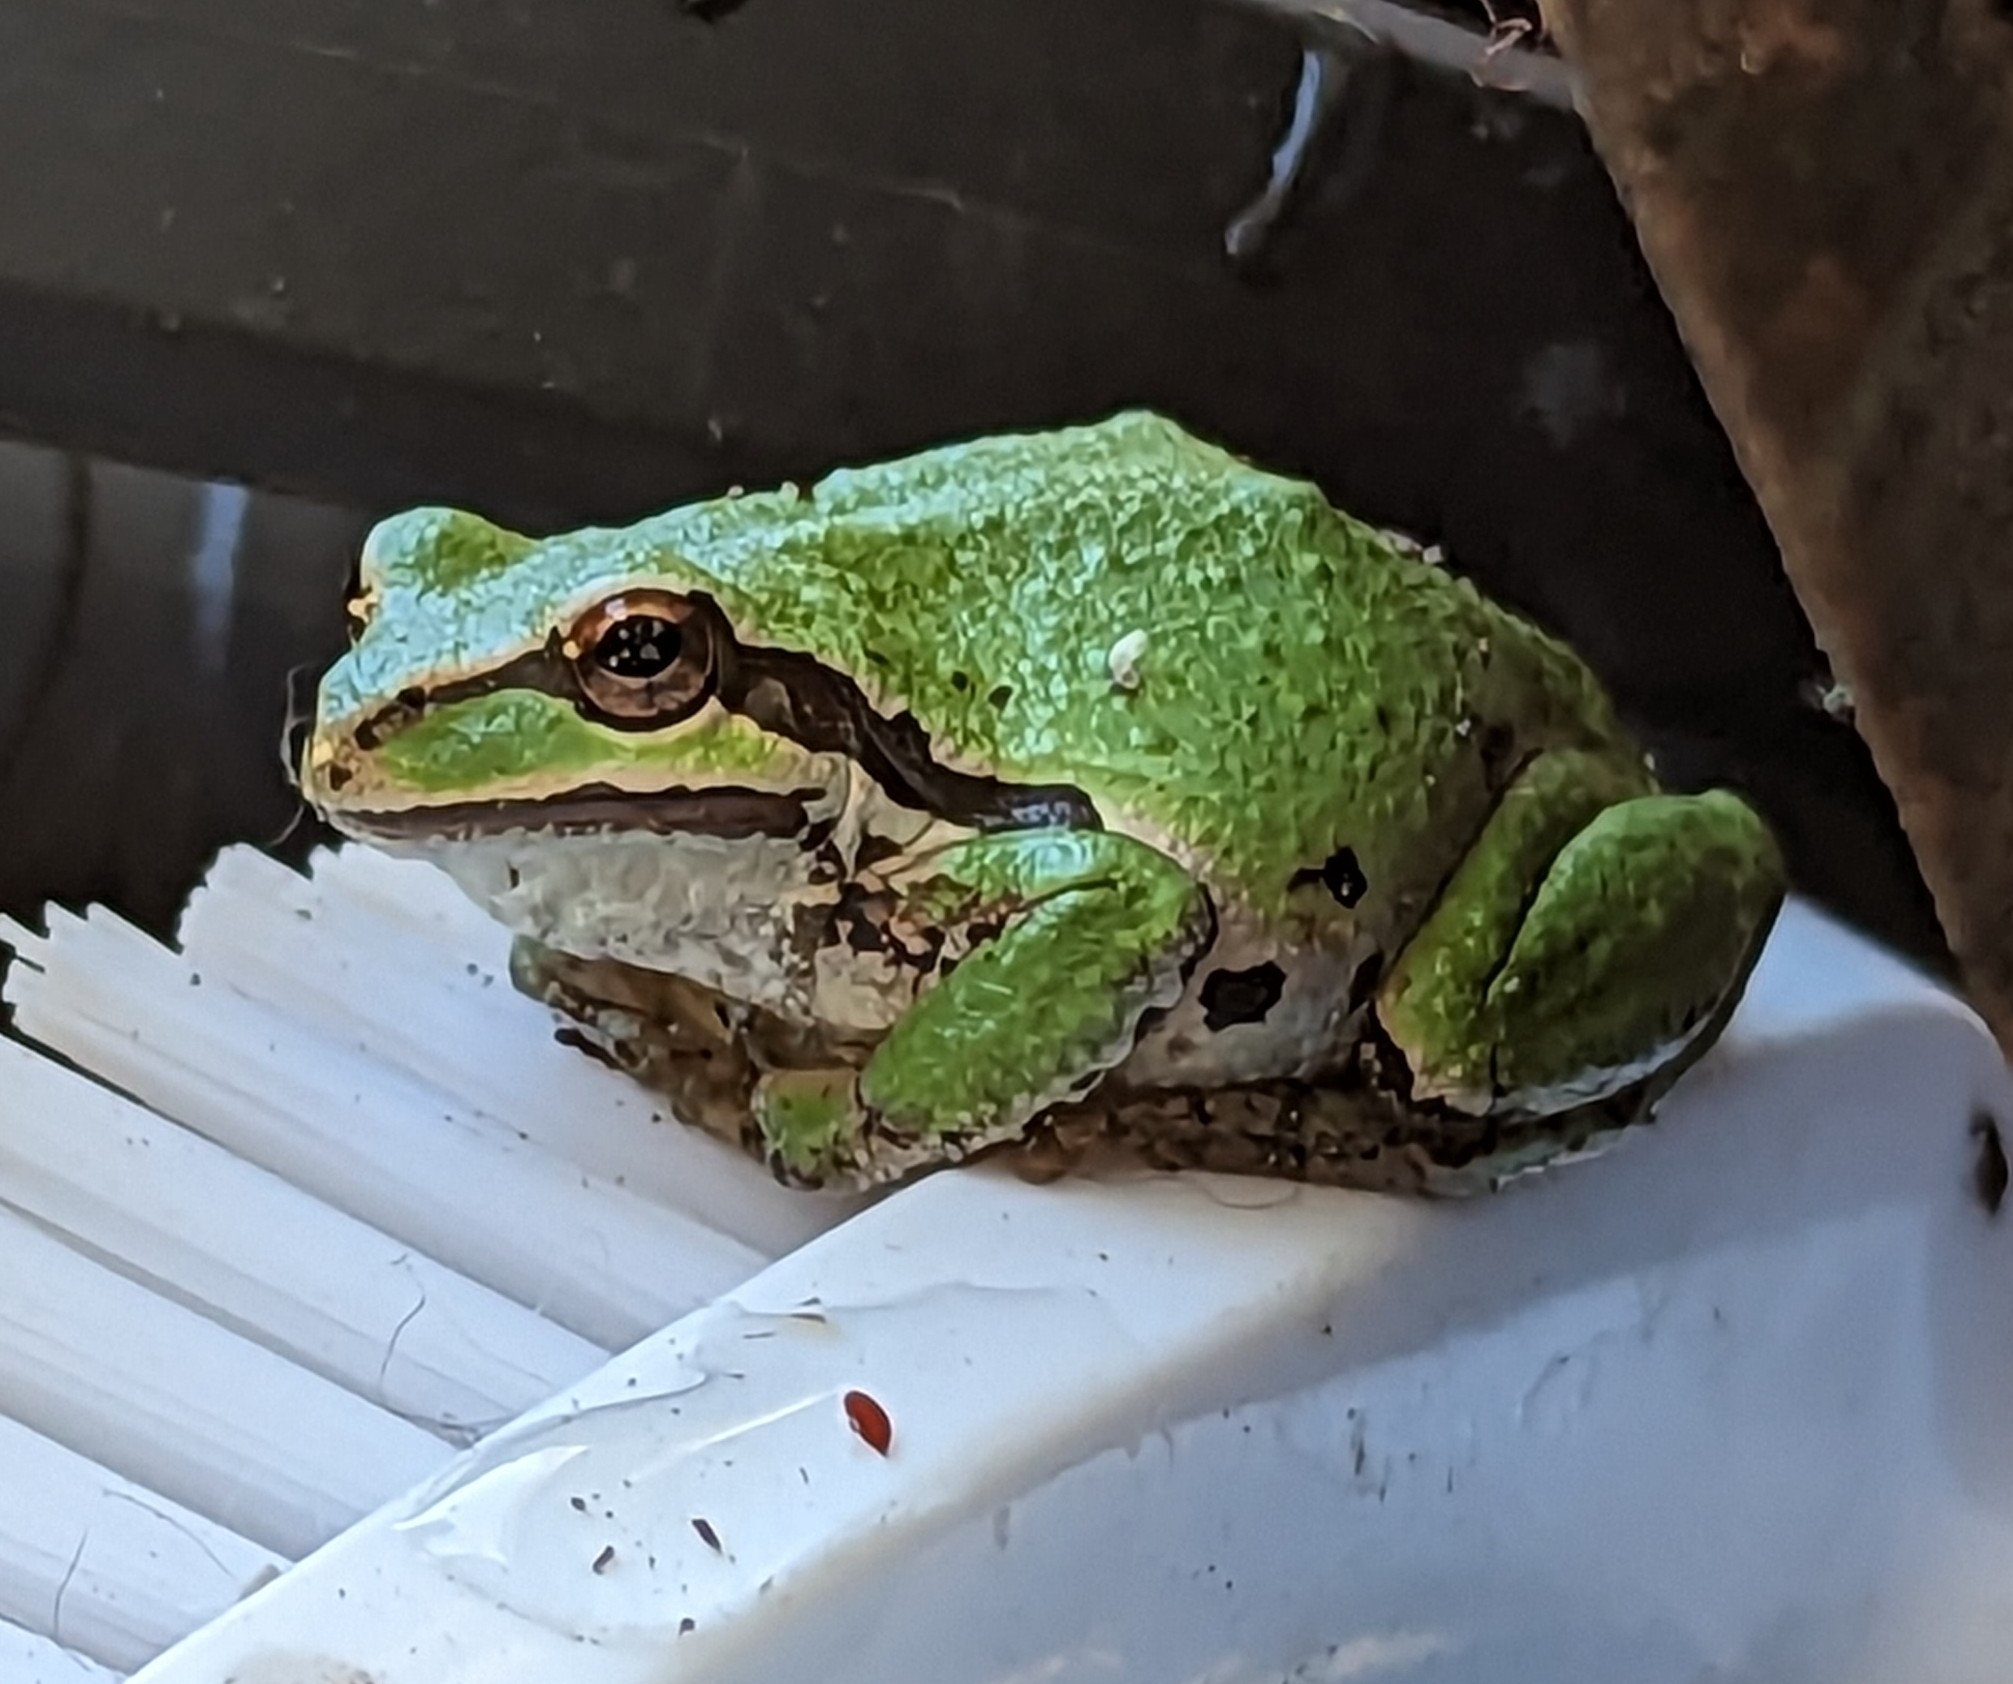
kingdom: Animalia
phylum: Chordata
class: Amphibia
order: Anura
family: Hylidae
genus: Pseudacris
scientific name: Pseudacris regilla
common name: Pacific chorus frog
